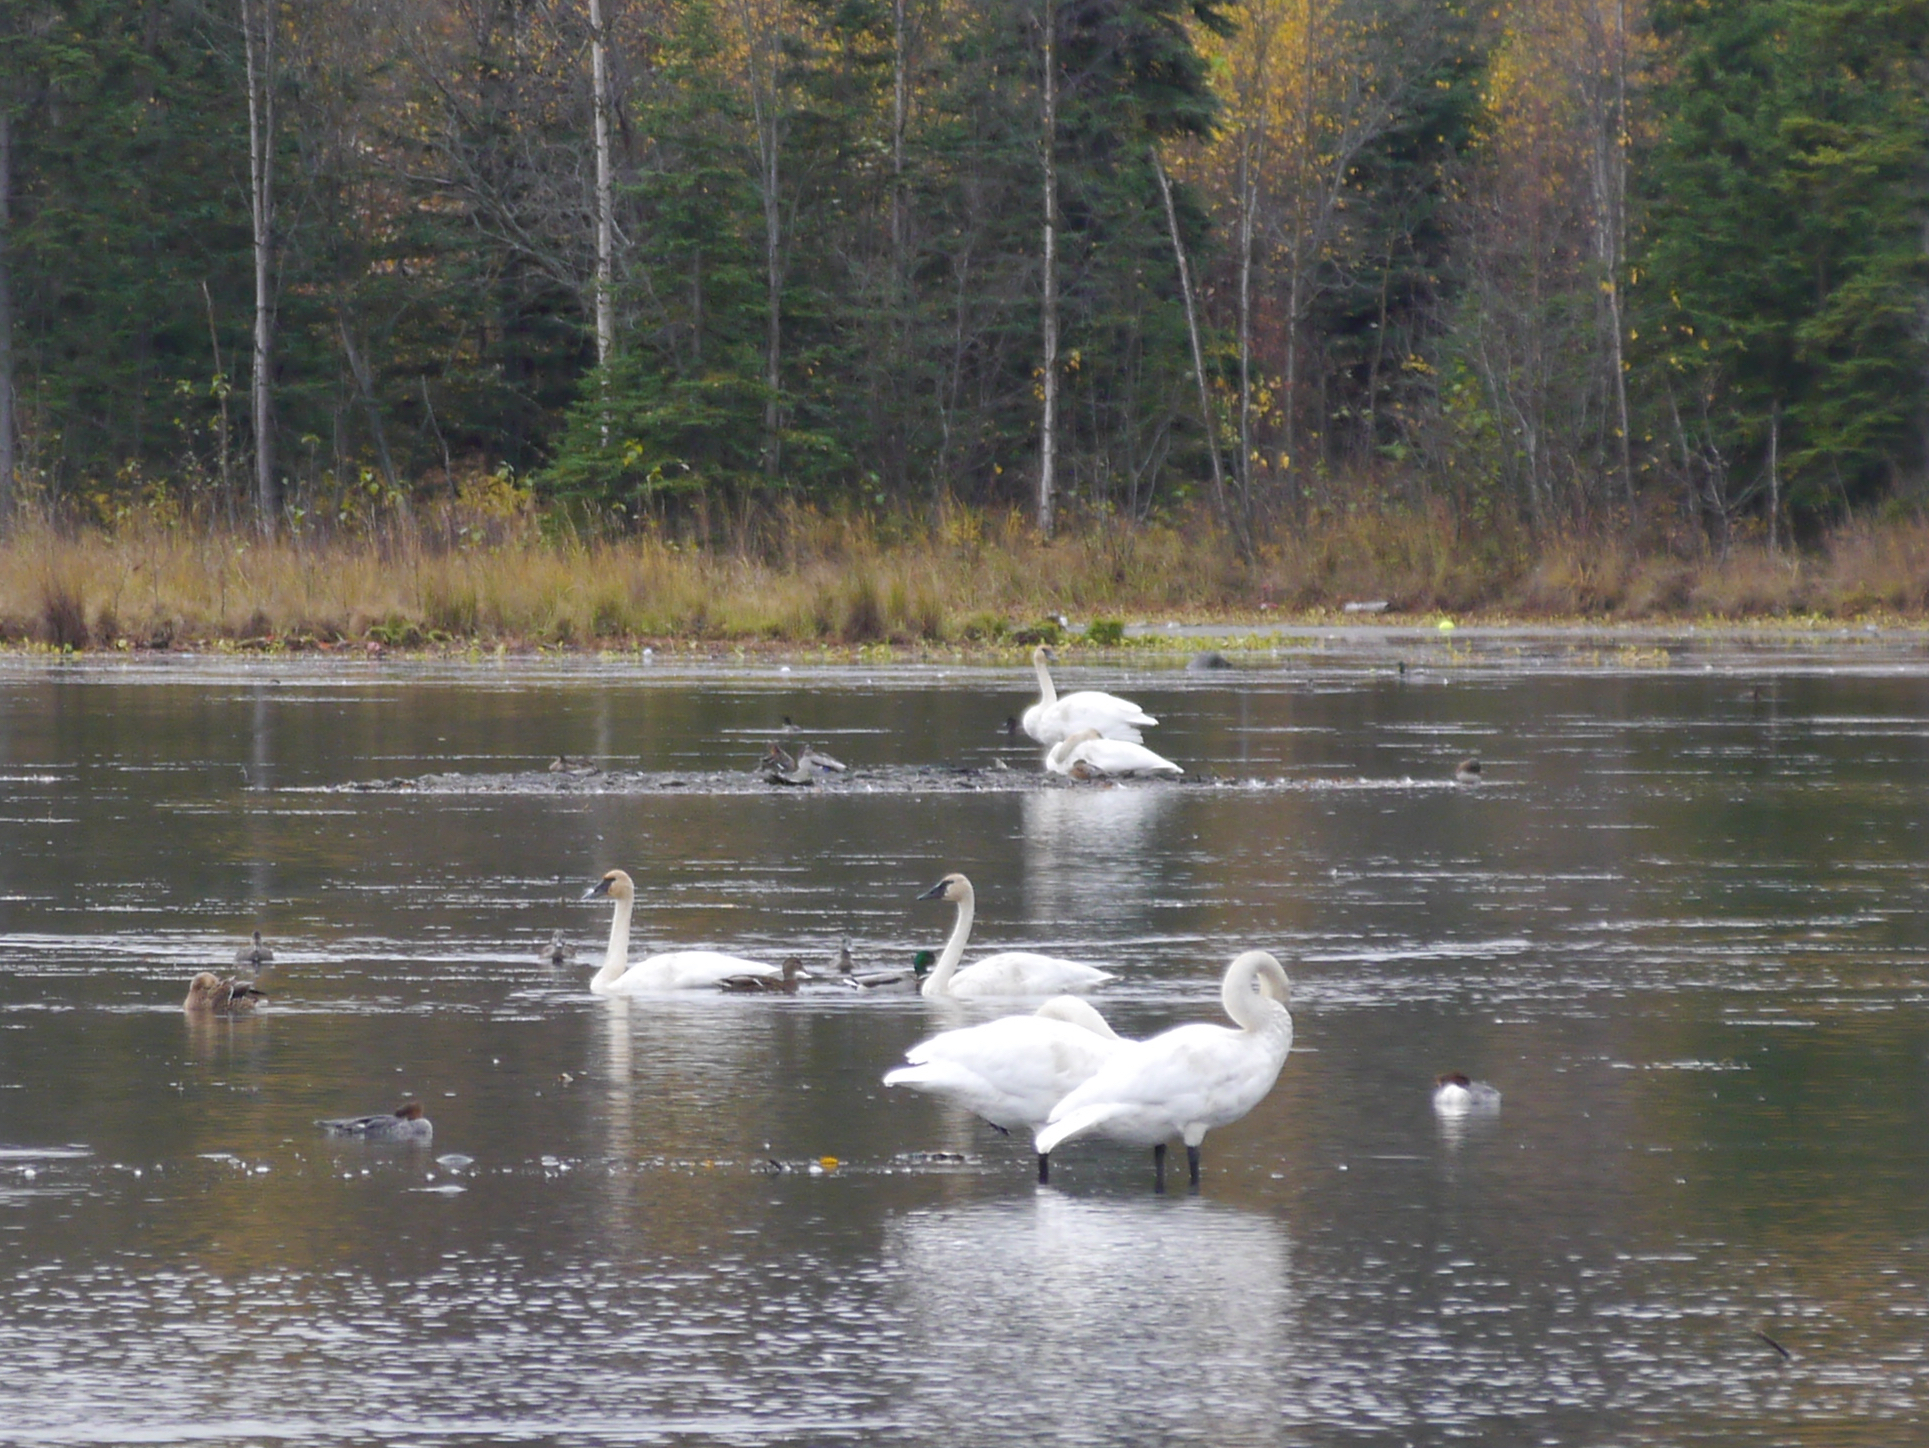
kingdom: Animalia
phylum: Chordata
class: Aves
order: Anseriformes
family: Anatidae
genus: Cygnus
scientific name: Cygnus buccinator
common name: Trumpeter swan
